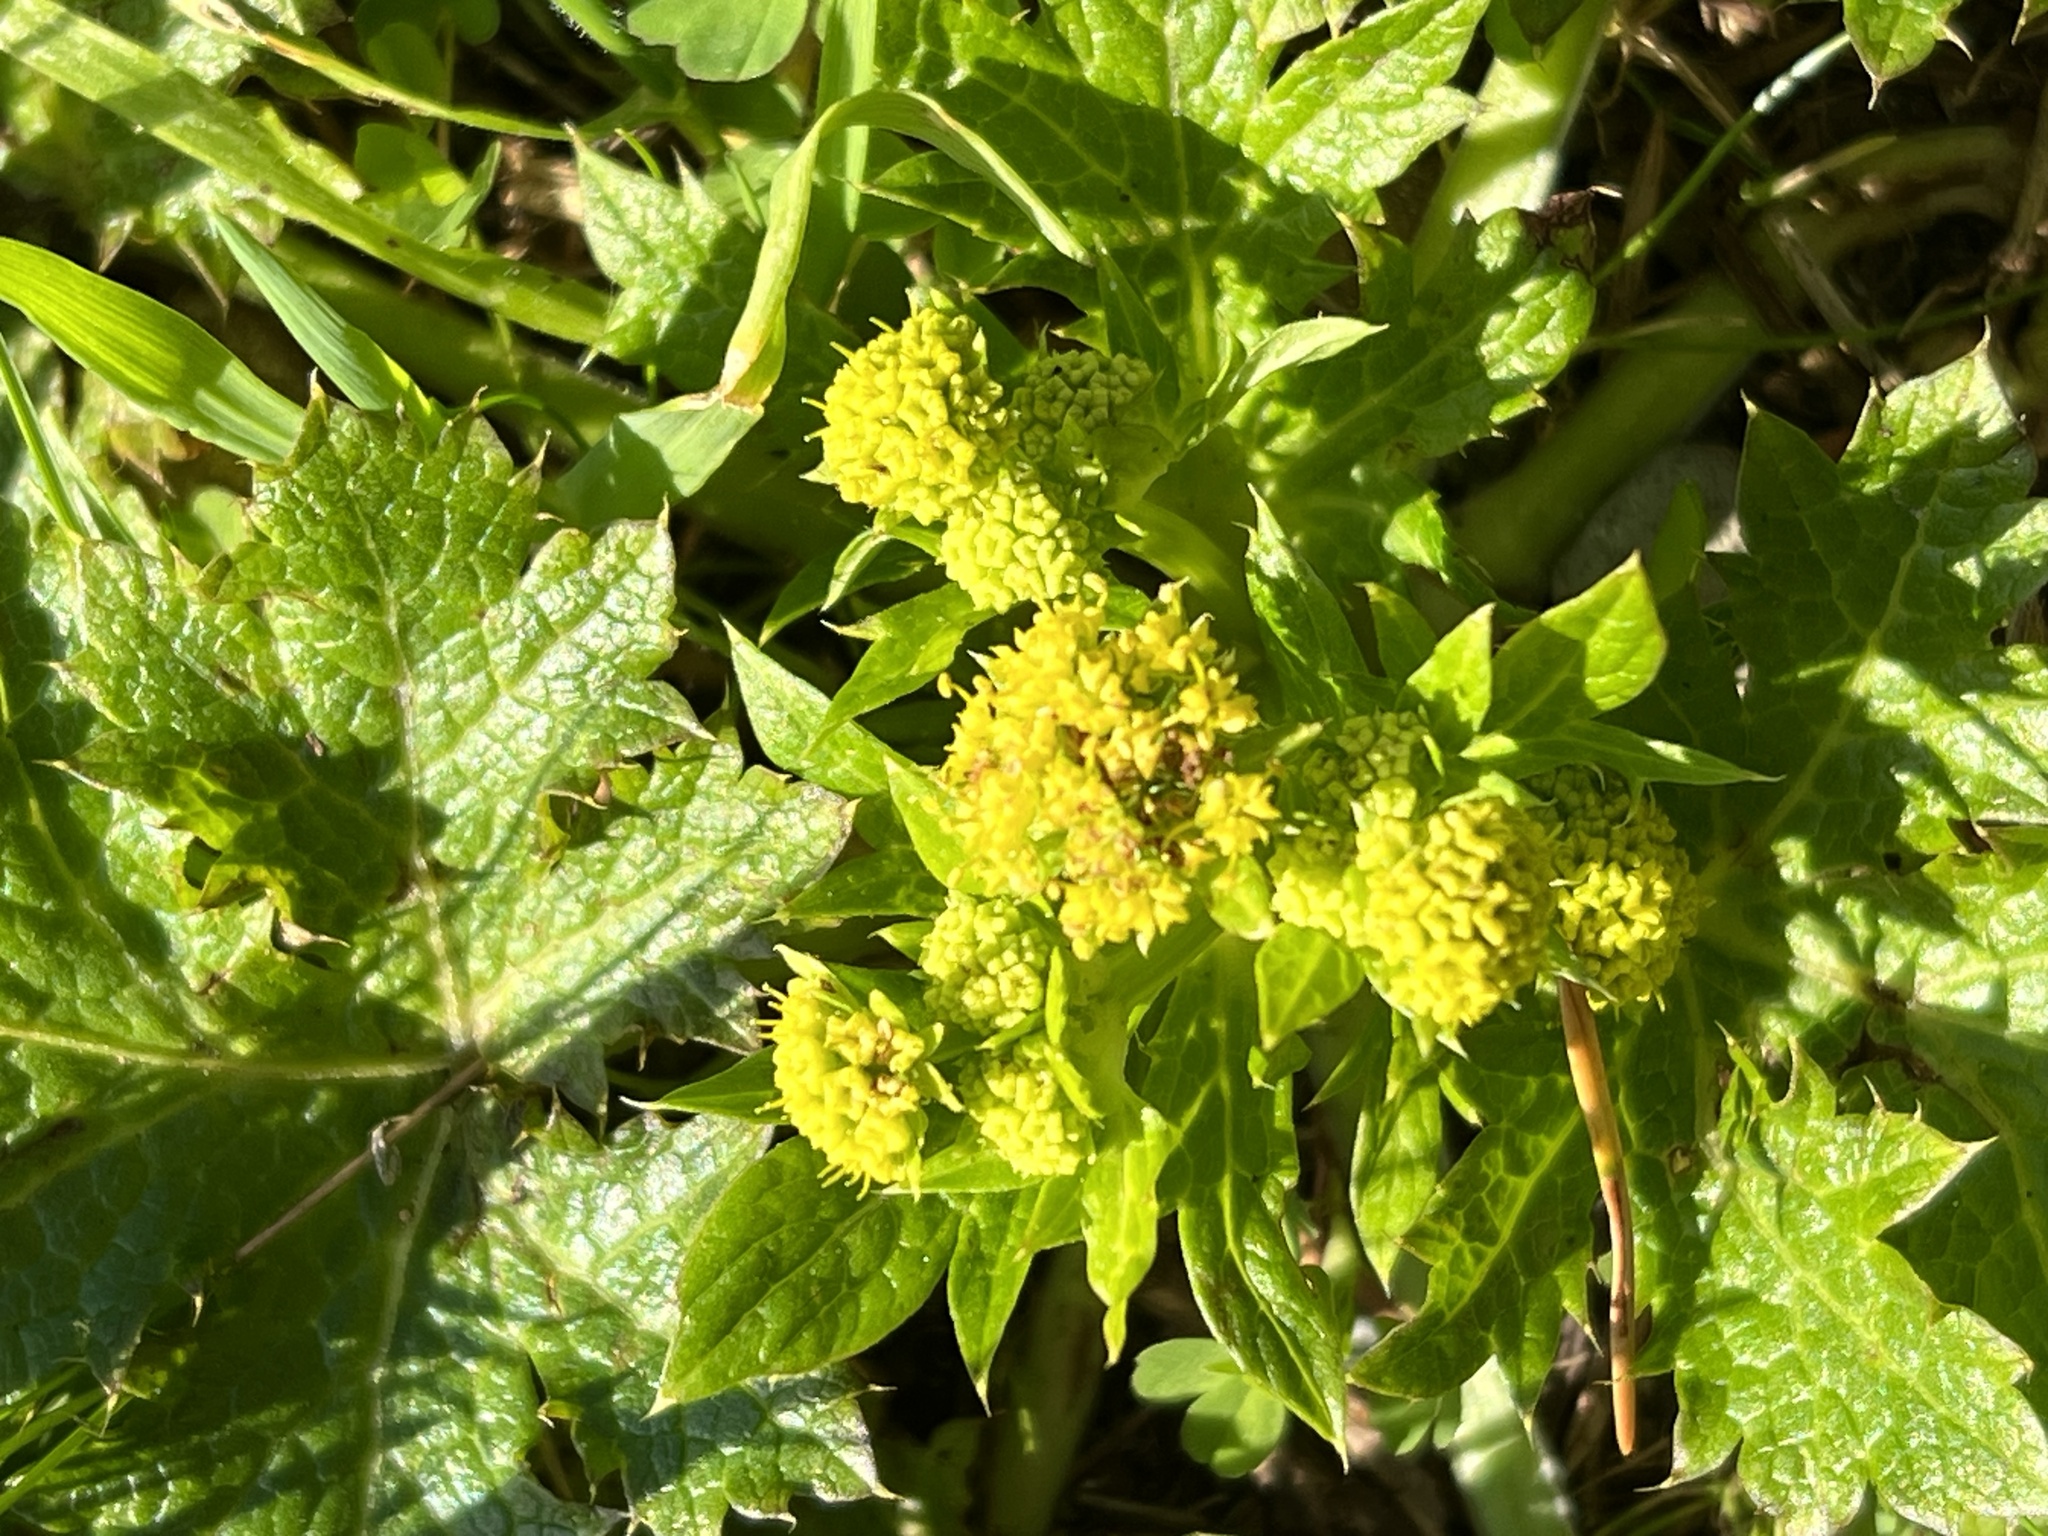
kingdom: Plantae
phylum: Tracheophyta
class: Magnoliopsida
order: Apiales
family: Apiaceae
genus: Sanicula
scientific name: Sanicula crassicaulis
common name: Western snakeroot
